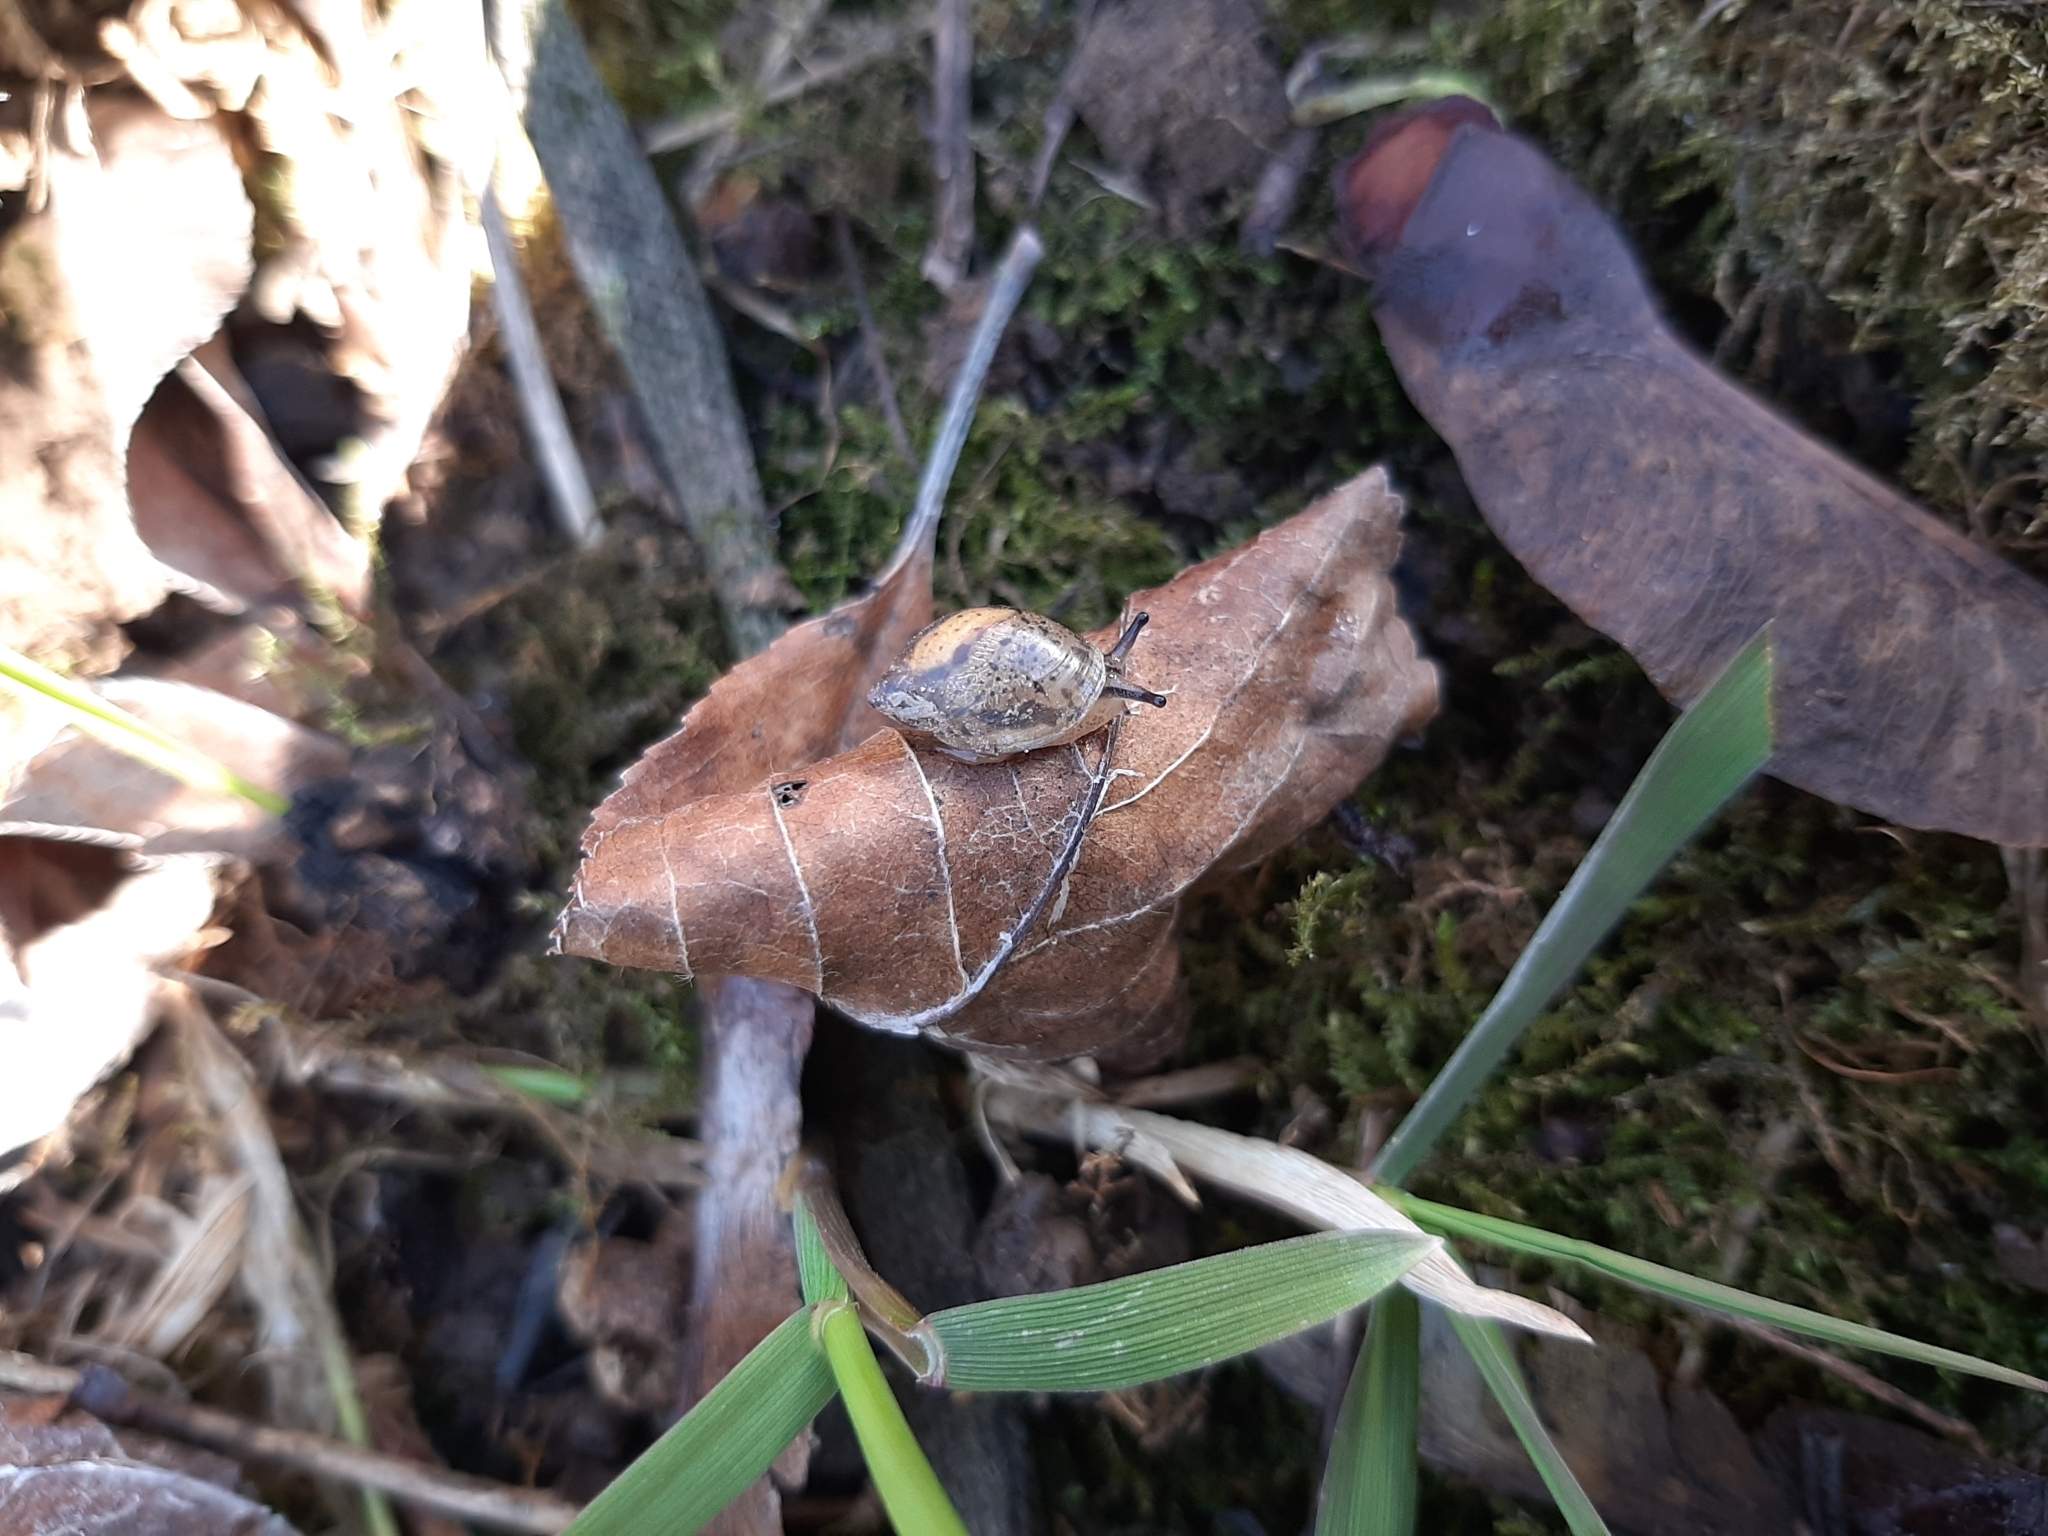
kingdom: Animalia
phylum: Mollusca
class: Gastropoda
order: Stylommatophora
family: Succineidae
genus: Succinea
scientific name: Succinea putris
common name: European ambersnail
